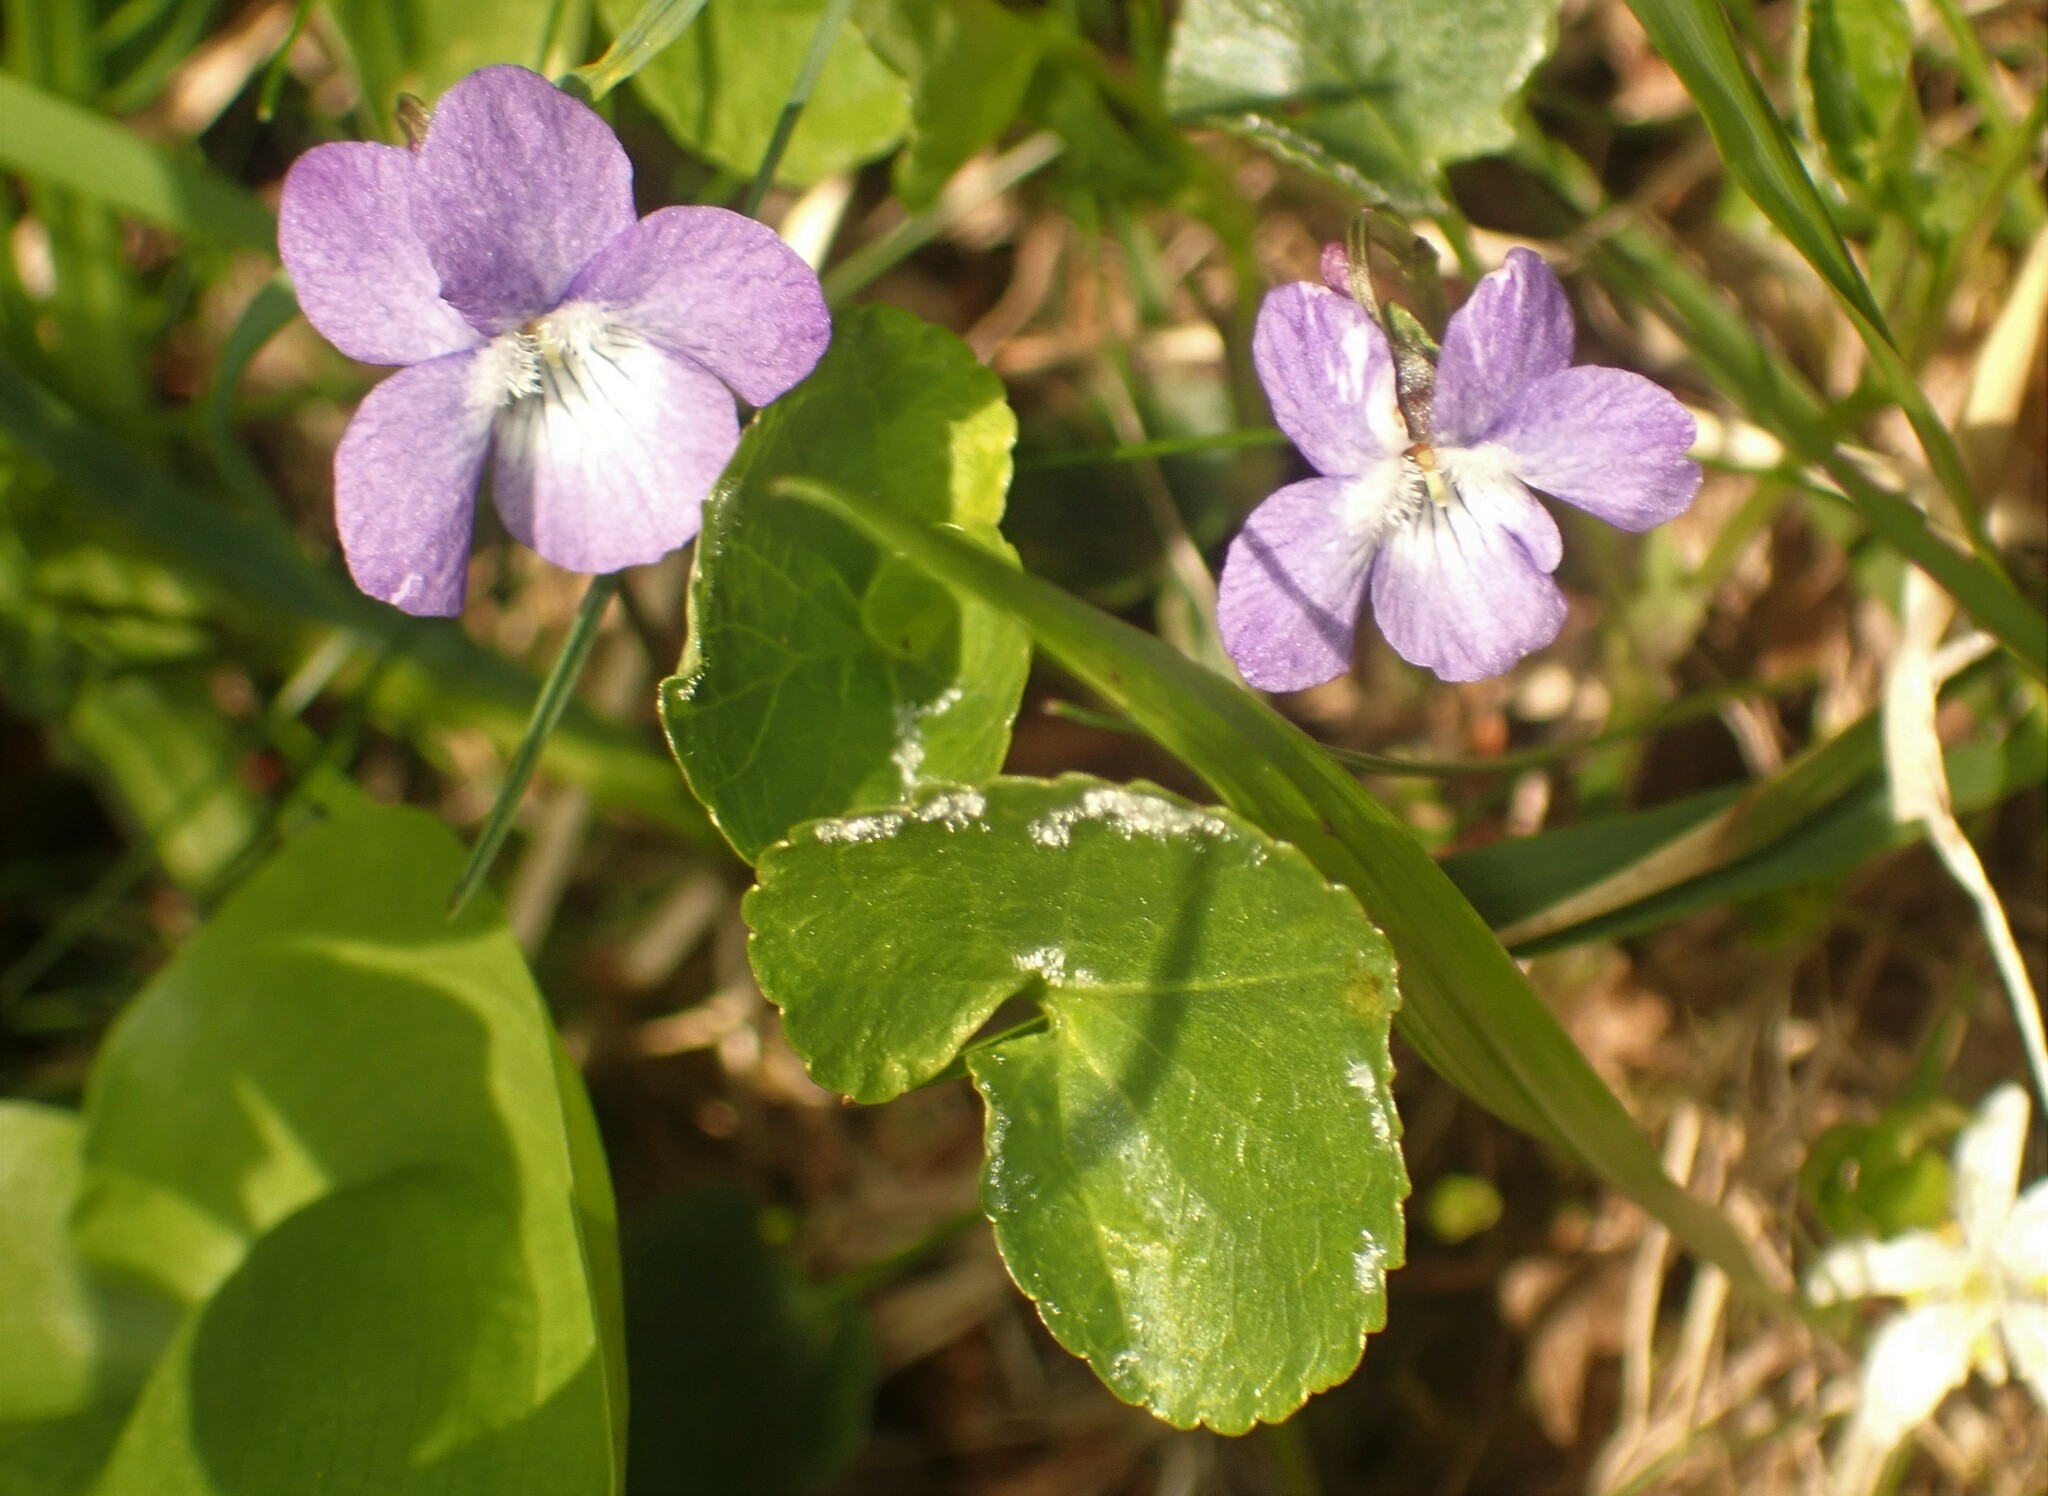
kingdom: Plantae
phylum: Tracheophyta
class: Magnoliopsida
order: Malpighiales
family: Violaceae
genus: Viola
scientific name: Viola adunca
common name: Sand violet
